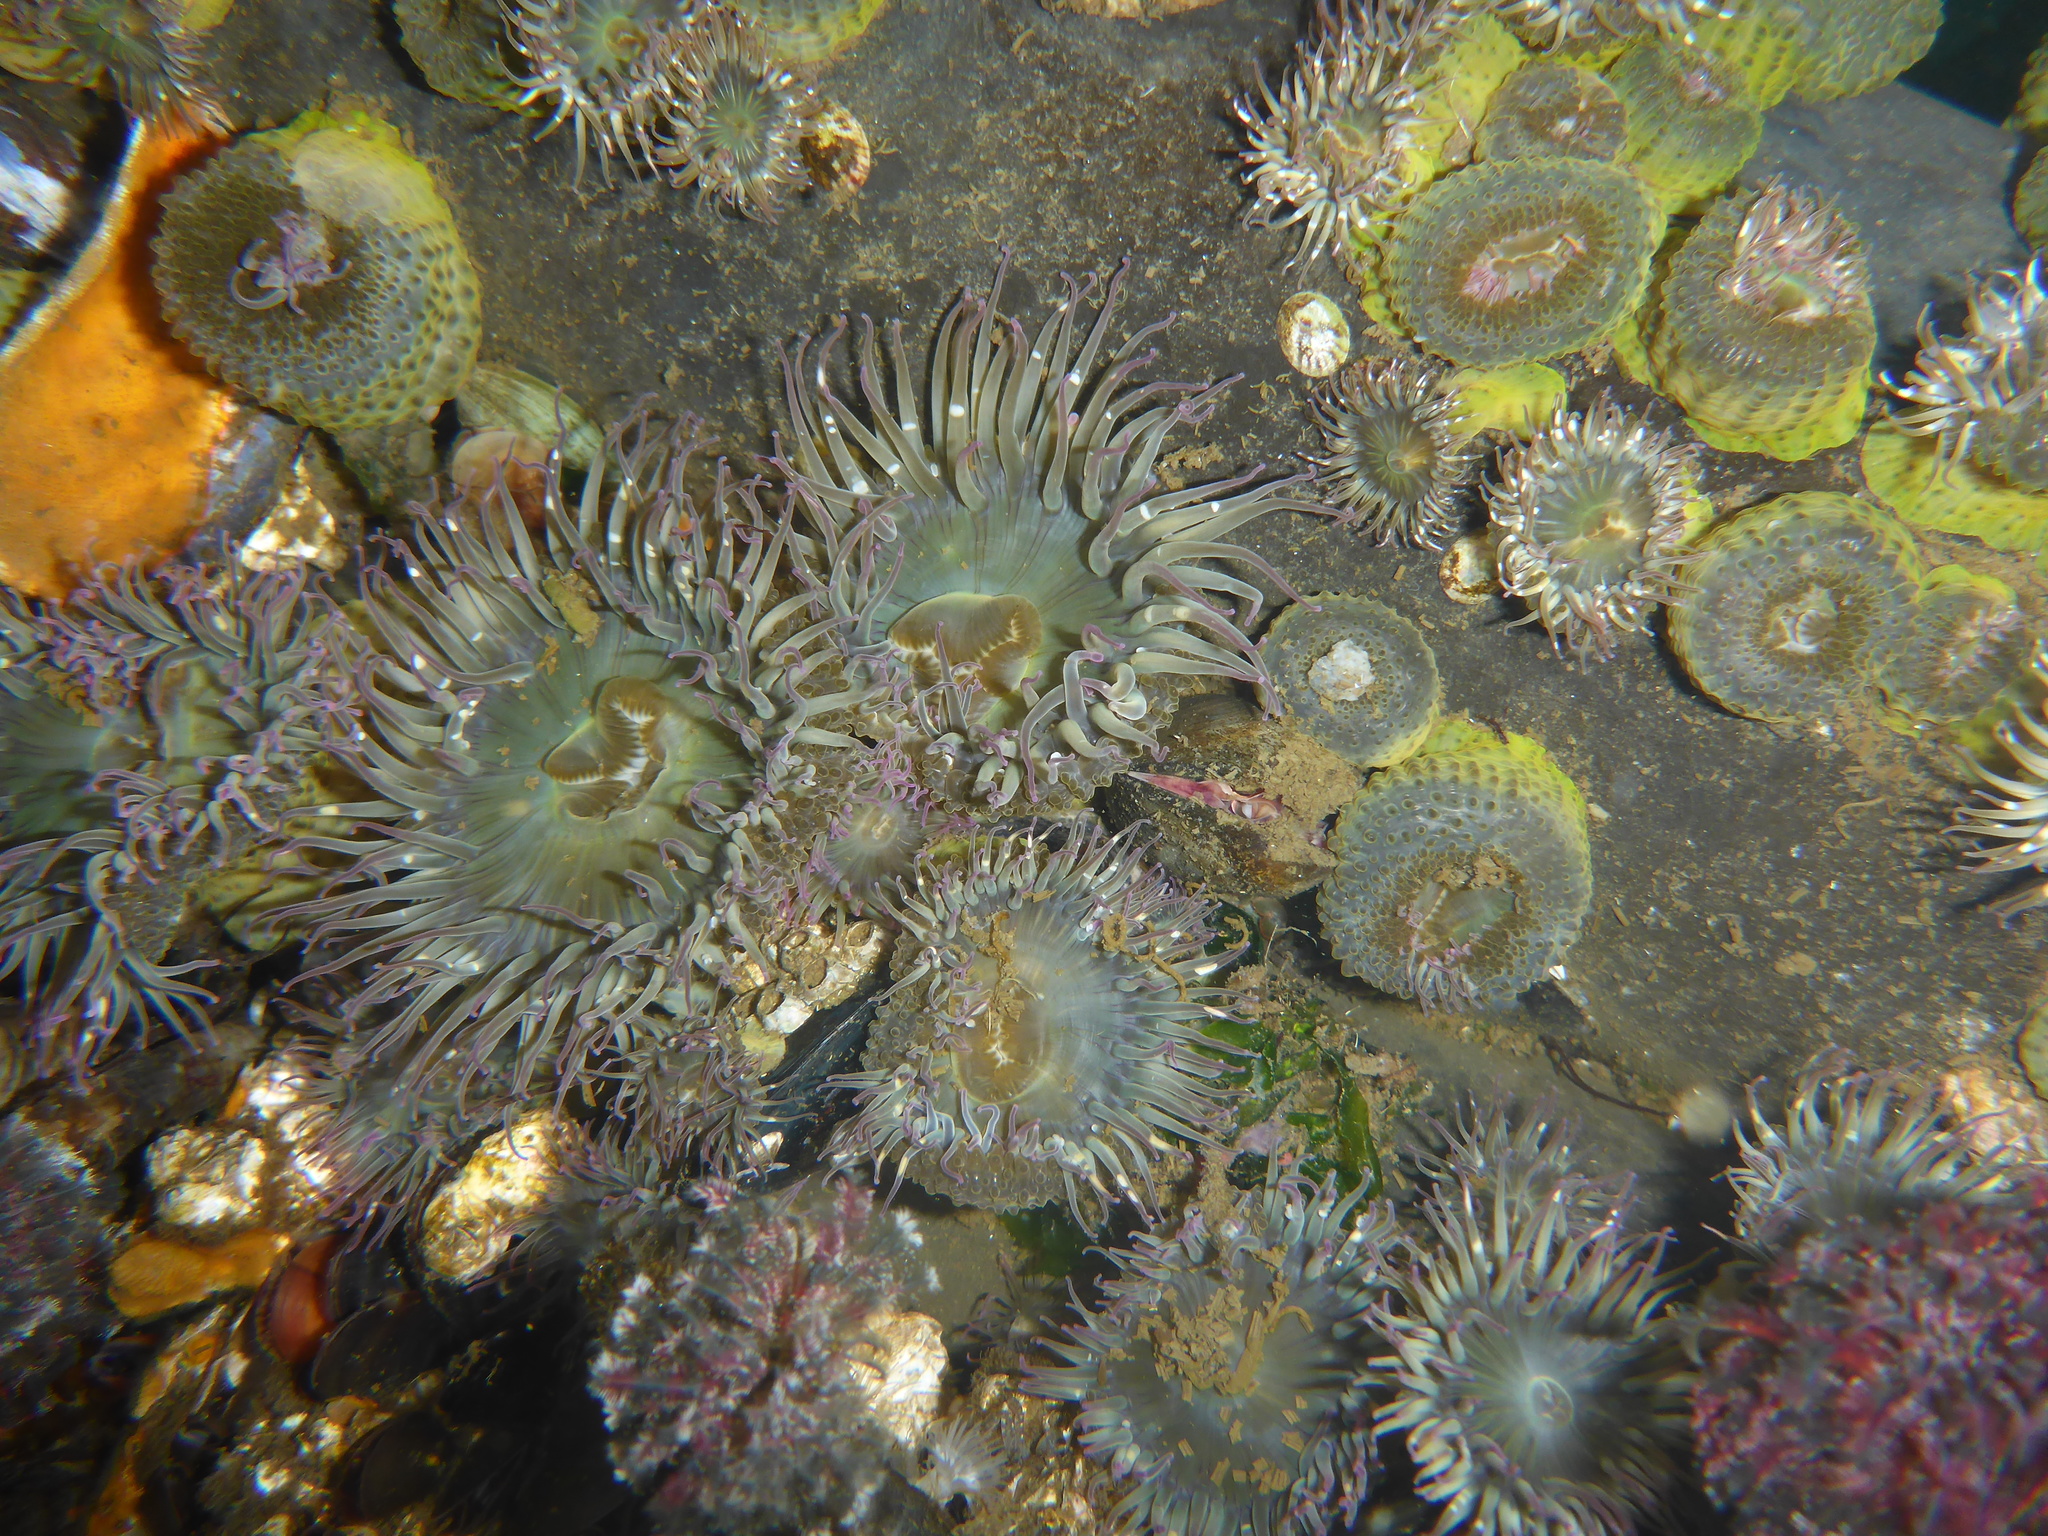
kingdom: Animalia
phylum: Cnidaria
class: Anthozoa
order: Actiniaria
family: Actiniidae
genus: Anthopleura
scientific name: Anthopleura elegantissima
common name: Clonal anemone
